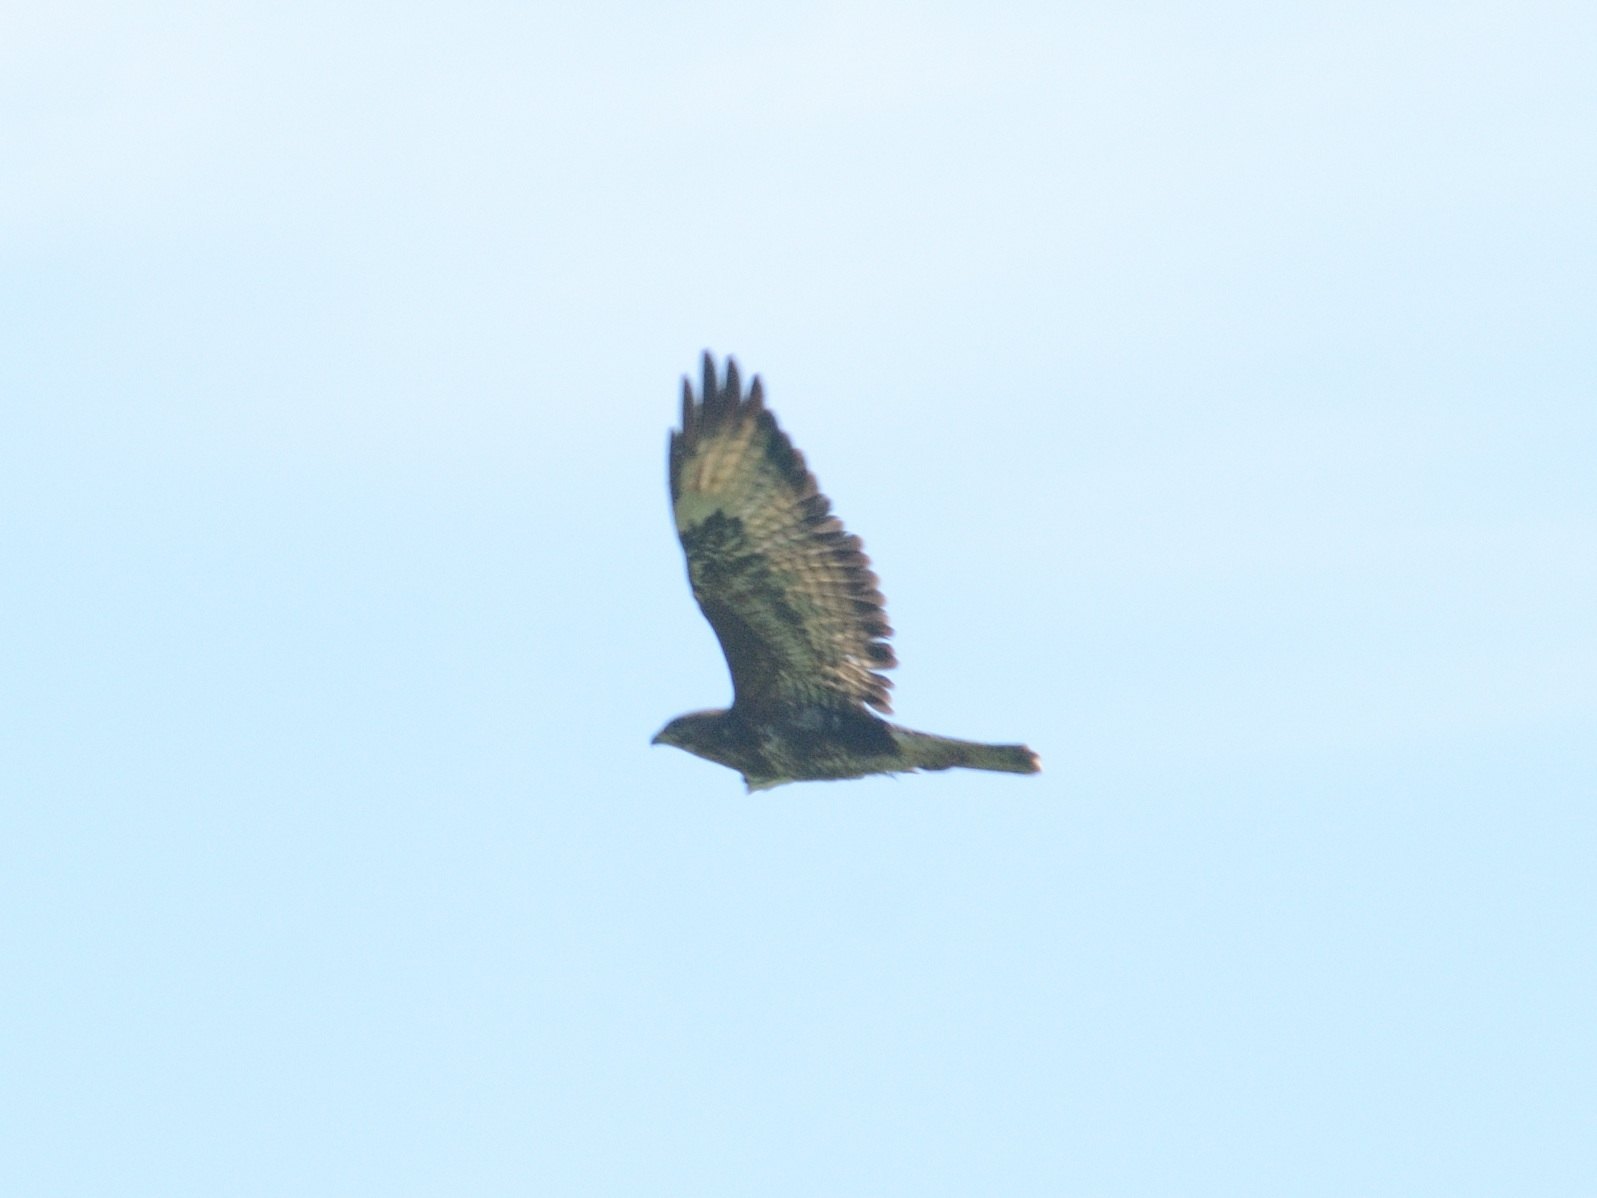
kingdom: Animalia
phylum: Chordata
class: Aves
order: Accipitriformes
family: Accipitridae
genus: Buteo
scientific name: Buteo buteo
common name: Common buzzard
